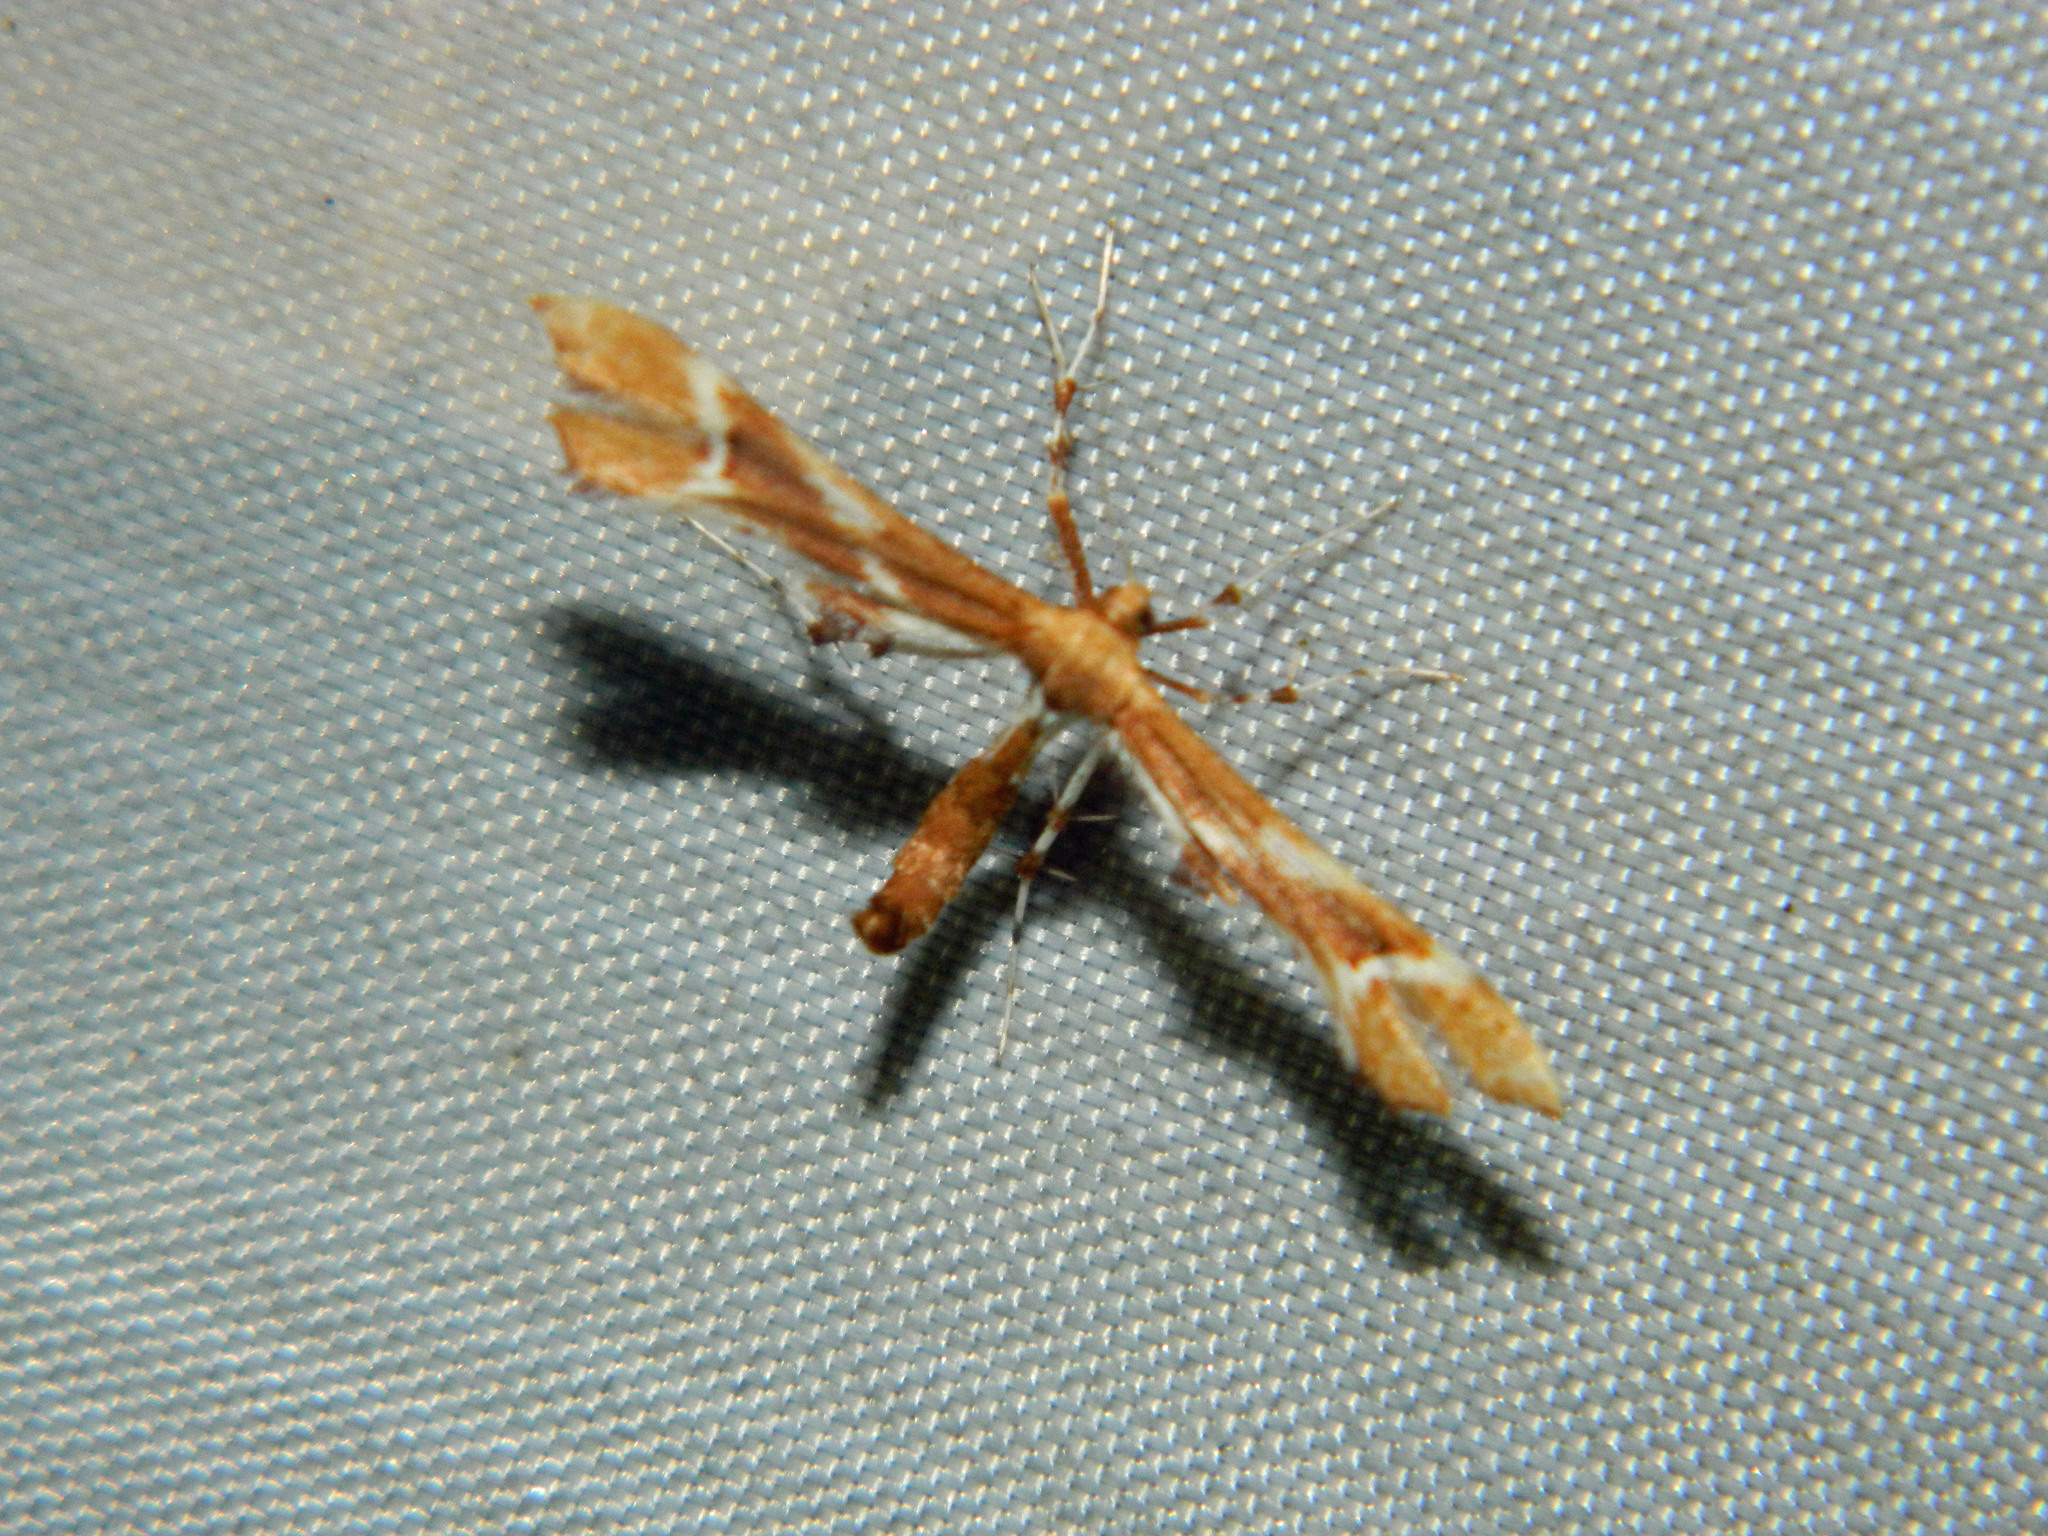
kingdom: Animalia
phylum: Arthropoda
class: Insecta
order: Lepidoptera
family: Pterophoridae
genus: Cnaemidophorus
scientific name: Cnaemidophorus rhododactyla
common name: Rose plume
